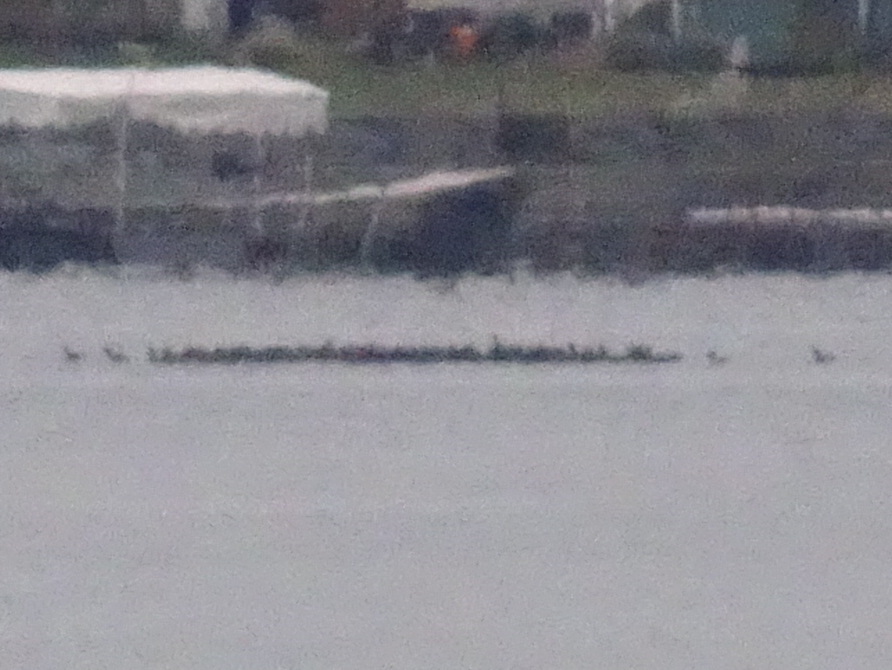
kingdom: Animalia
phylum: Chordata
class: Aves
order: Gruiformes
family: Rallidae
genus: Fulica
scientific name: Fulica americana
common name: American coot
